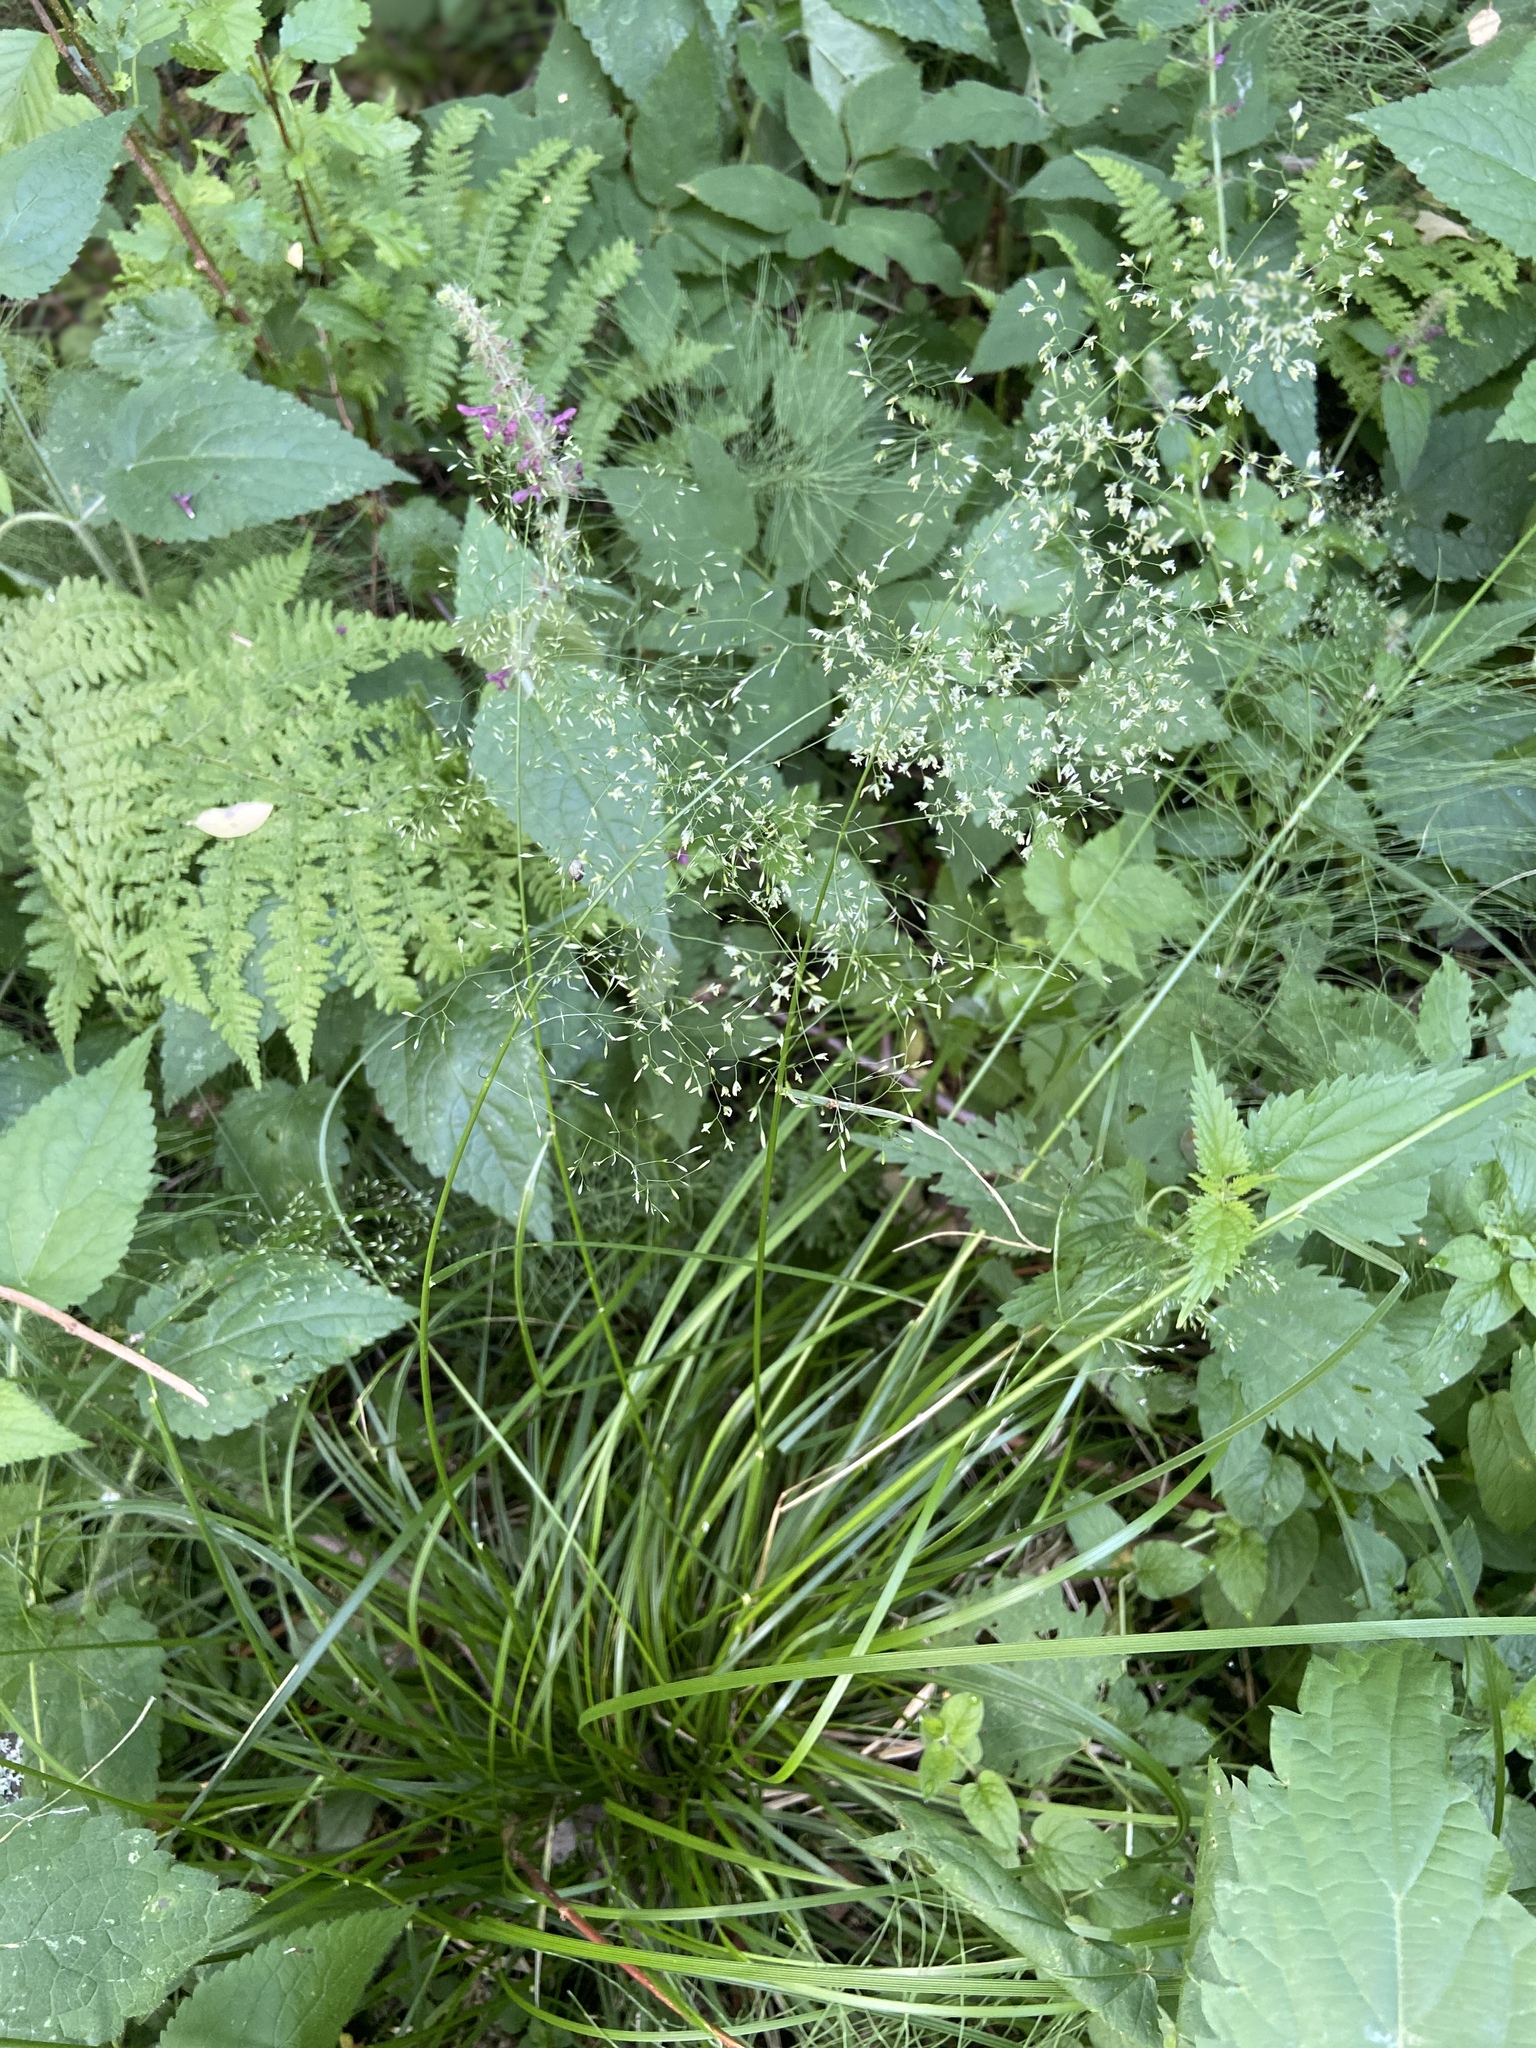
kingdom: Plantae
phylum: Tracheophyta
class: Liliopsida
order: Poales
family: Poaceae
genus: Deschampsia
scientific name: Deschampsia cespitosa
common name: Tufted hair-grass
